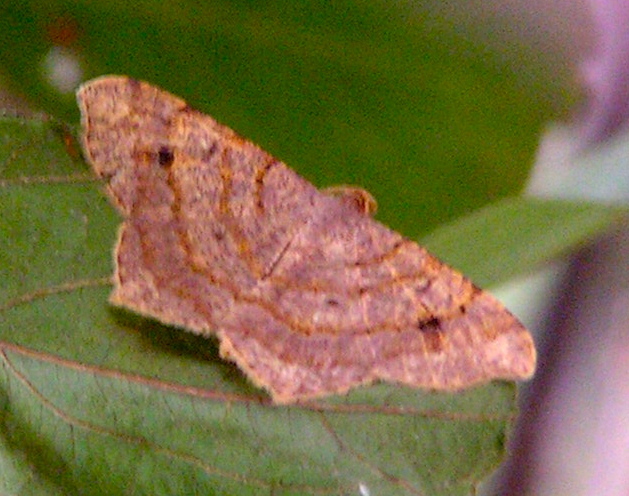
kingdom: Animalia
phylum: Arthropoda
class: Insecta
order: Lepidoptera
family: Geometridae
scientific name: Geometridae
